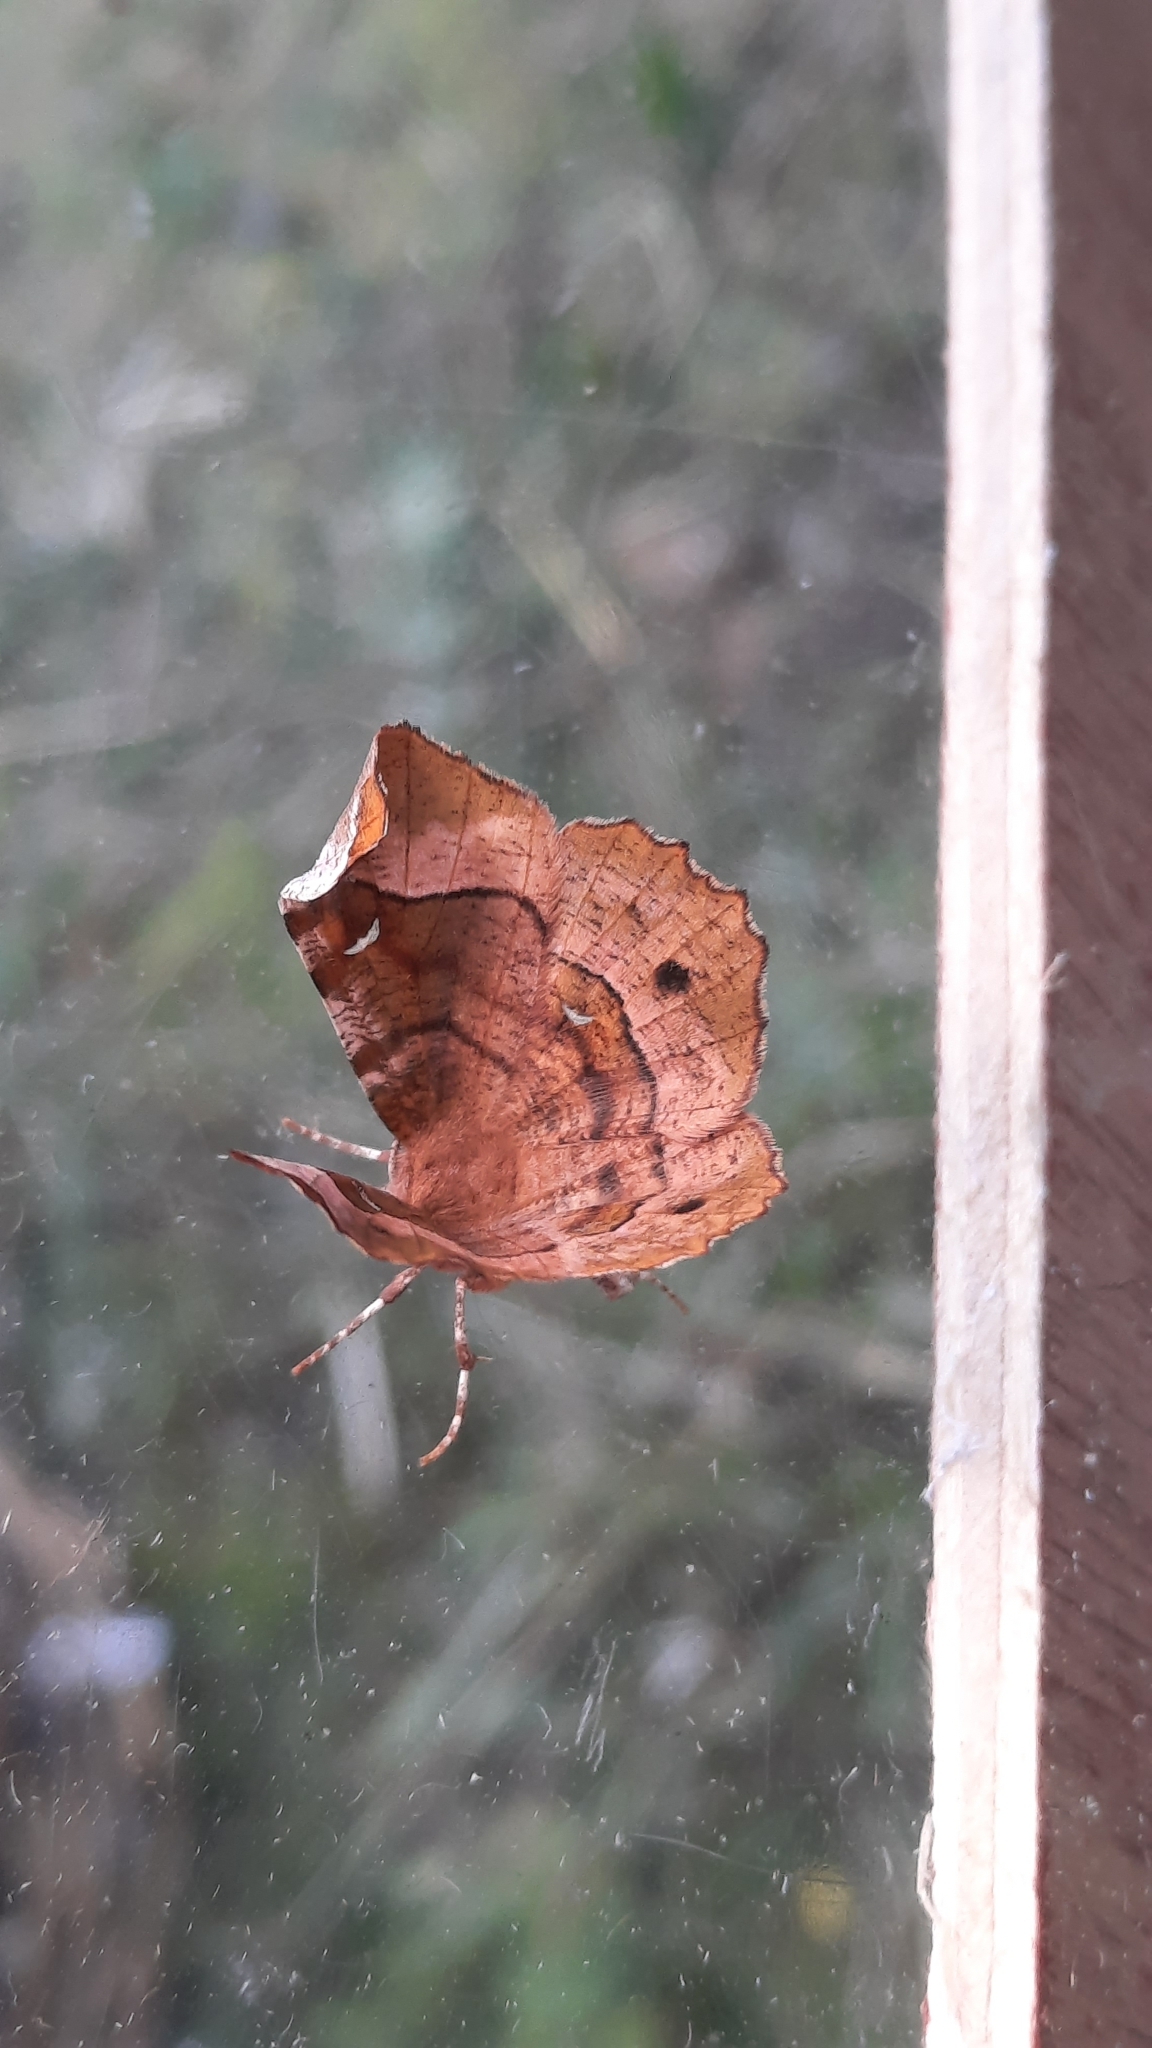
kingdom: Animalia
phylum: Arthropoda
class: Insecta
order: Lepidoptera
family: Geometridae
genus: Selenia
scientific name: Selenia tetralunaria
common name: Purple thorn
